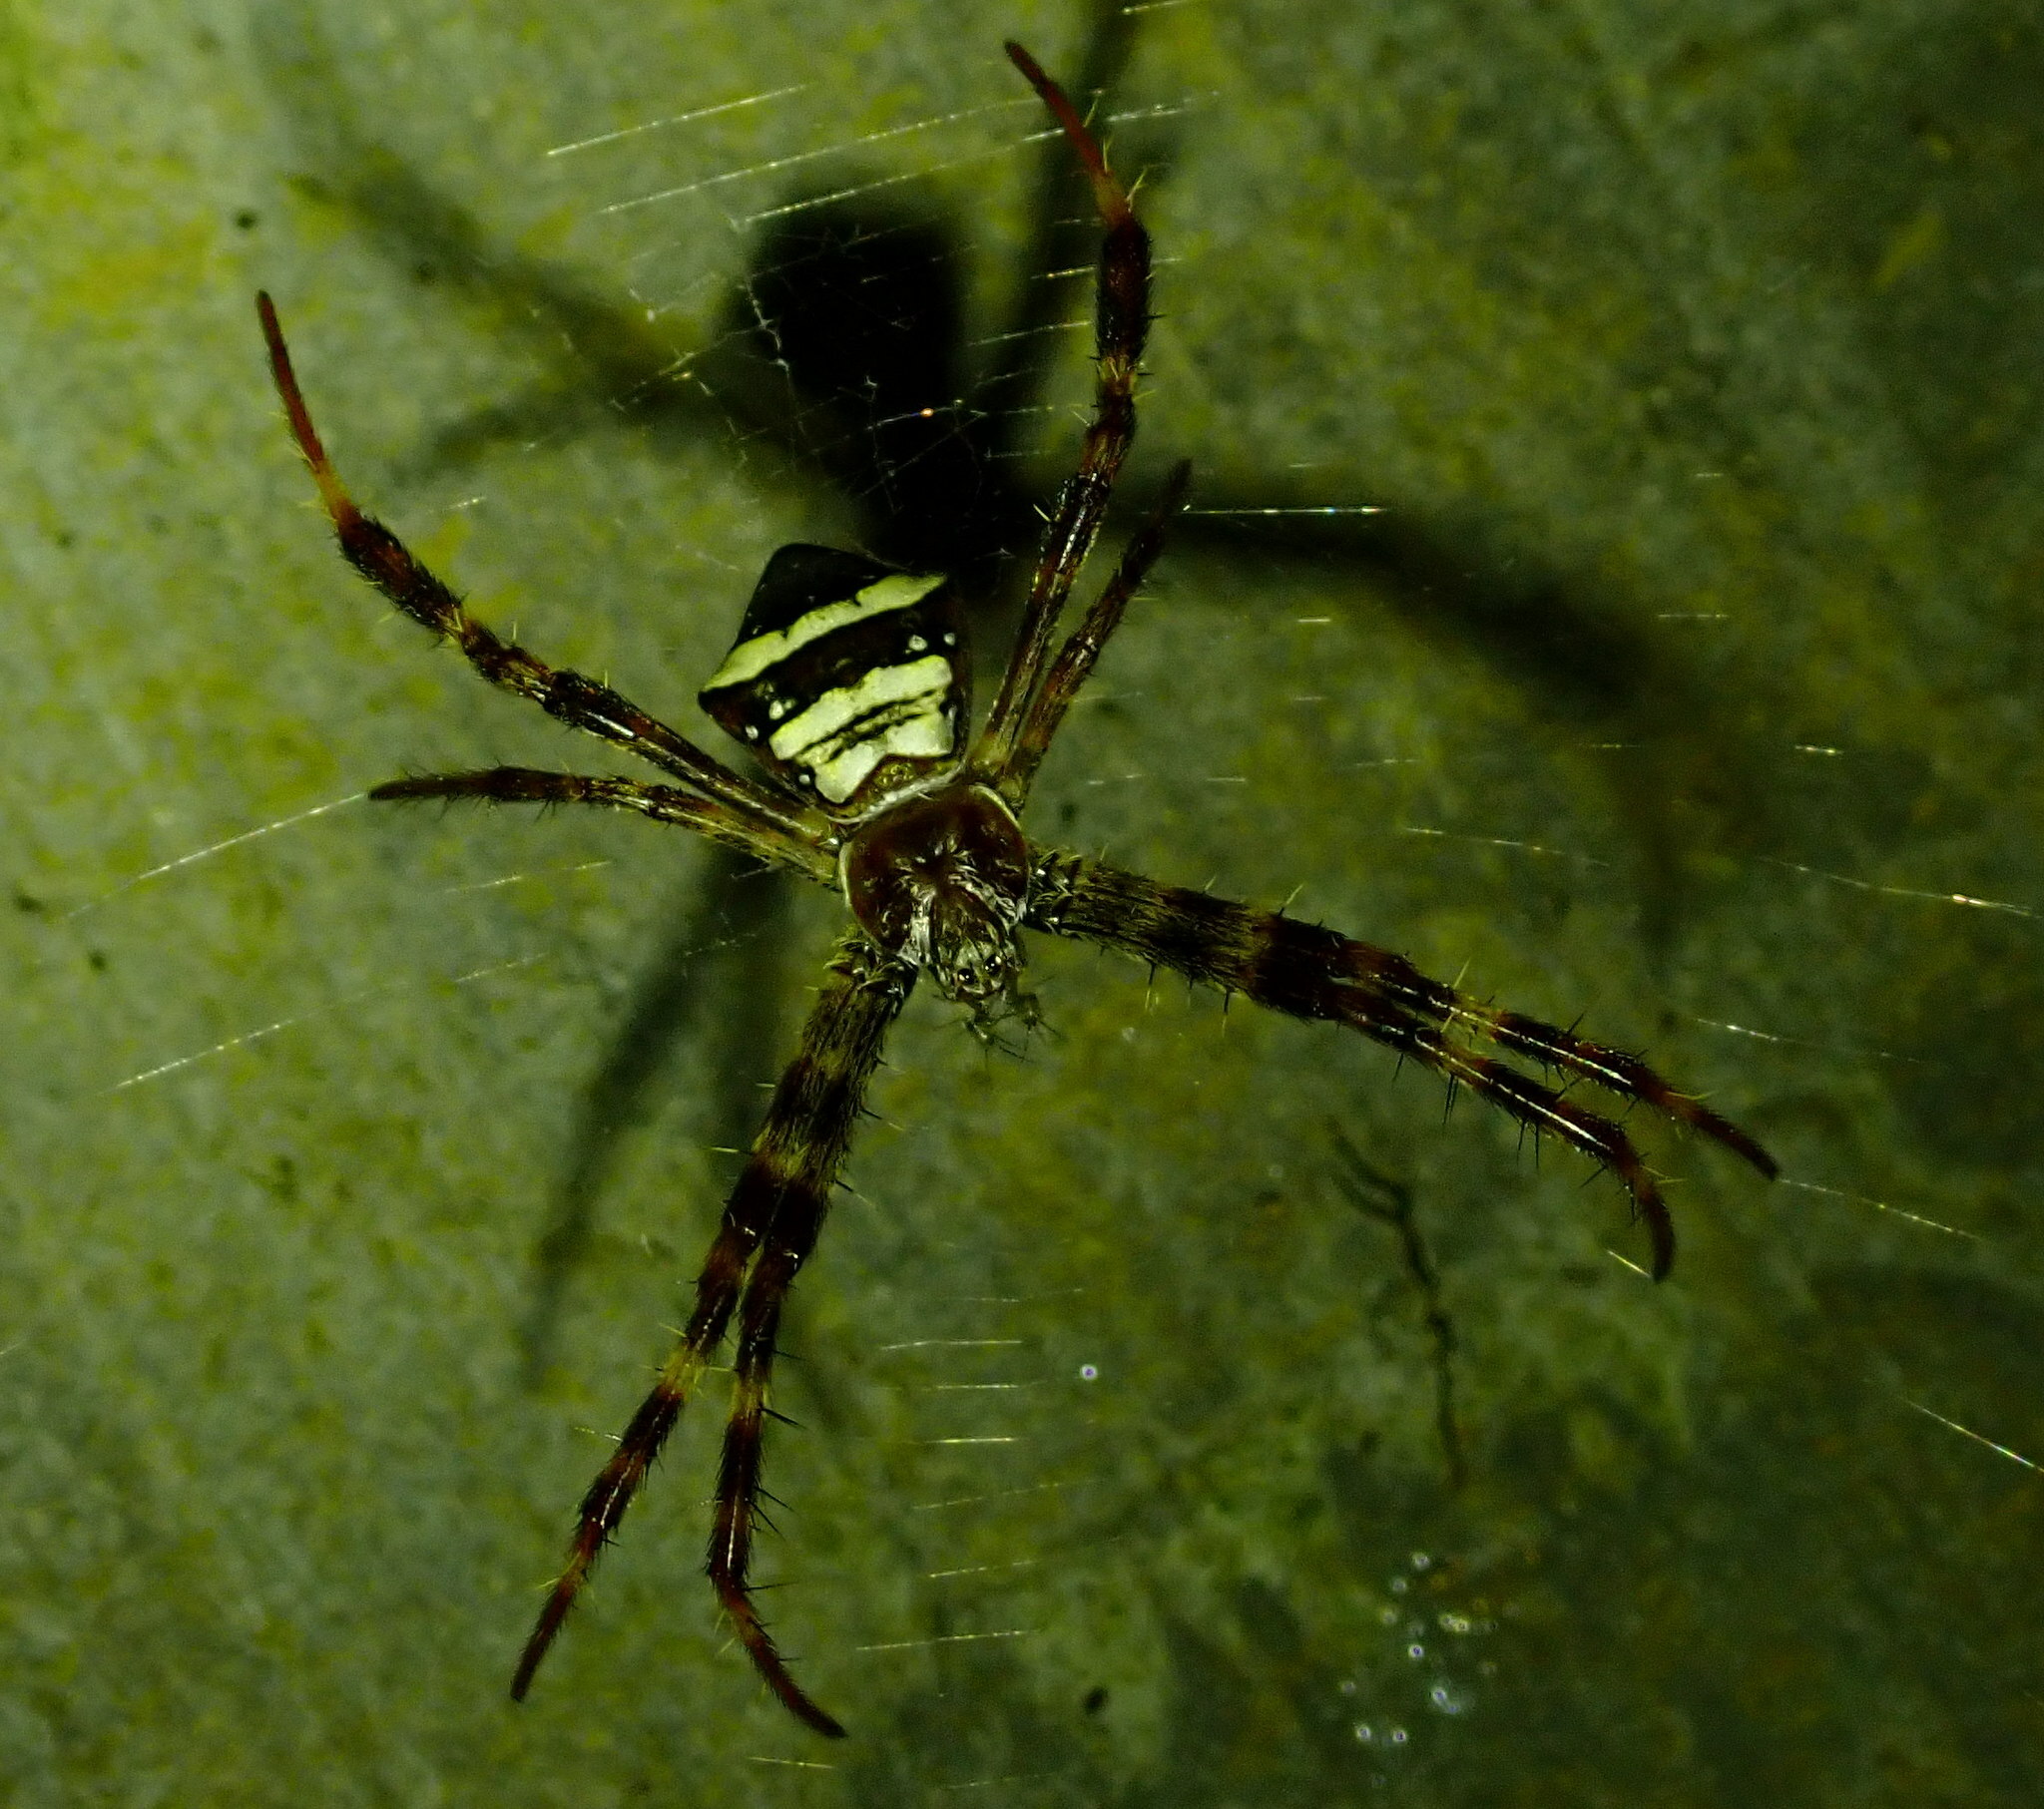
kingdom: Animalia
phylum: Arthropoda
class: Arachnida
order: Araneae
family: Araneidae
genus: Argiope
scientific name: Argiope reinwardti
